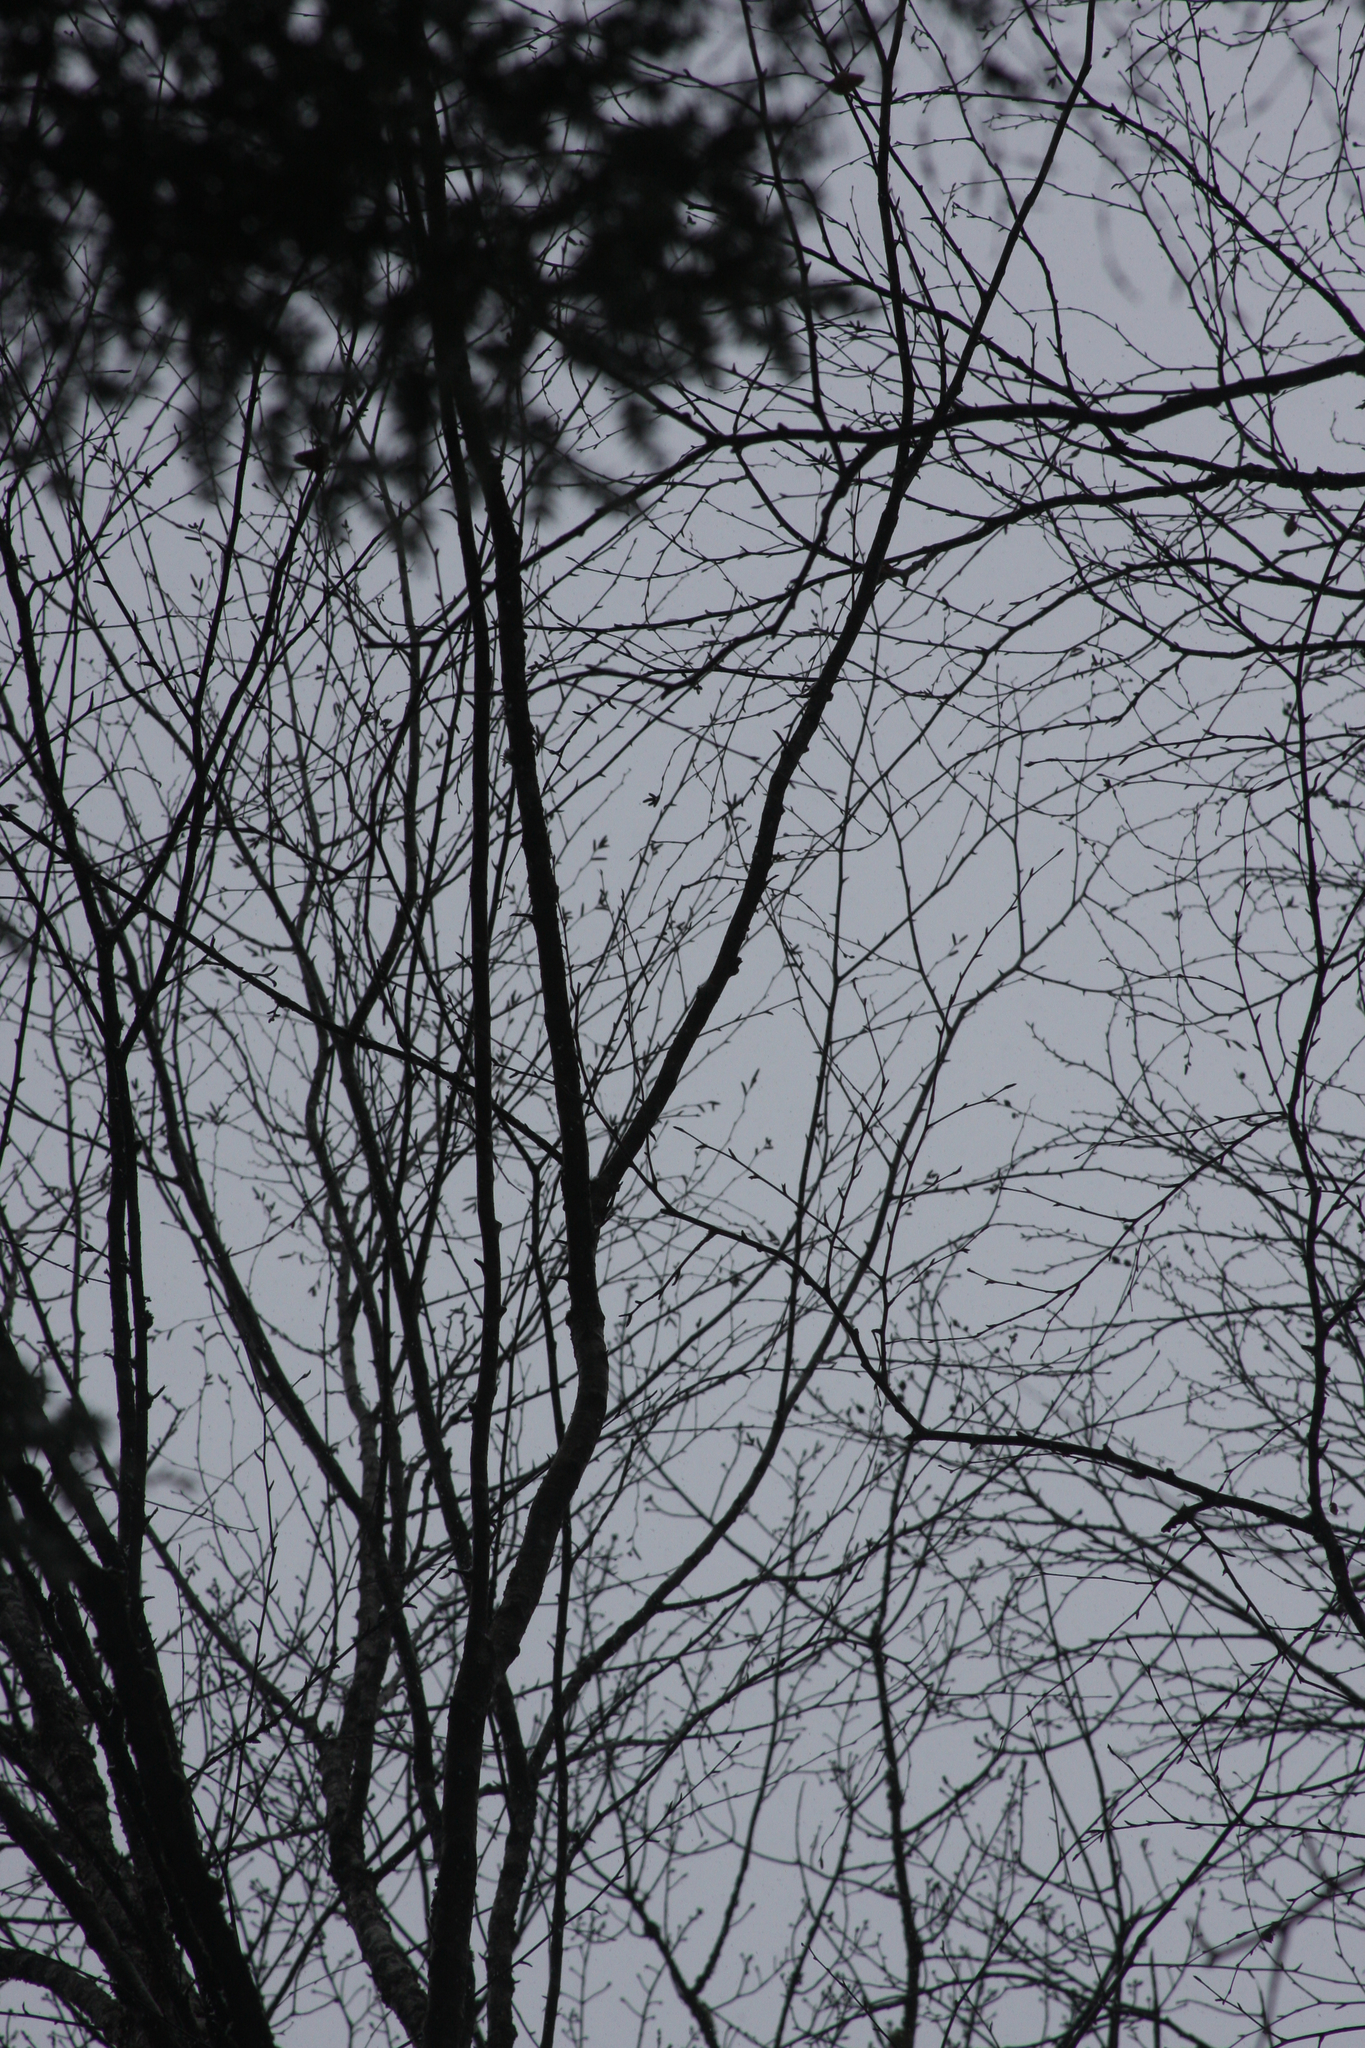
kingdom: Plantae
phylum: Tracheophyta
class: Magnoliopsida
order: Fagales
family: Betulaceae
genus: Betula
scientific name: Betula alleghaniensis
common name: Yellow birch
